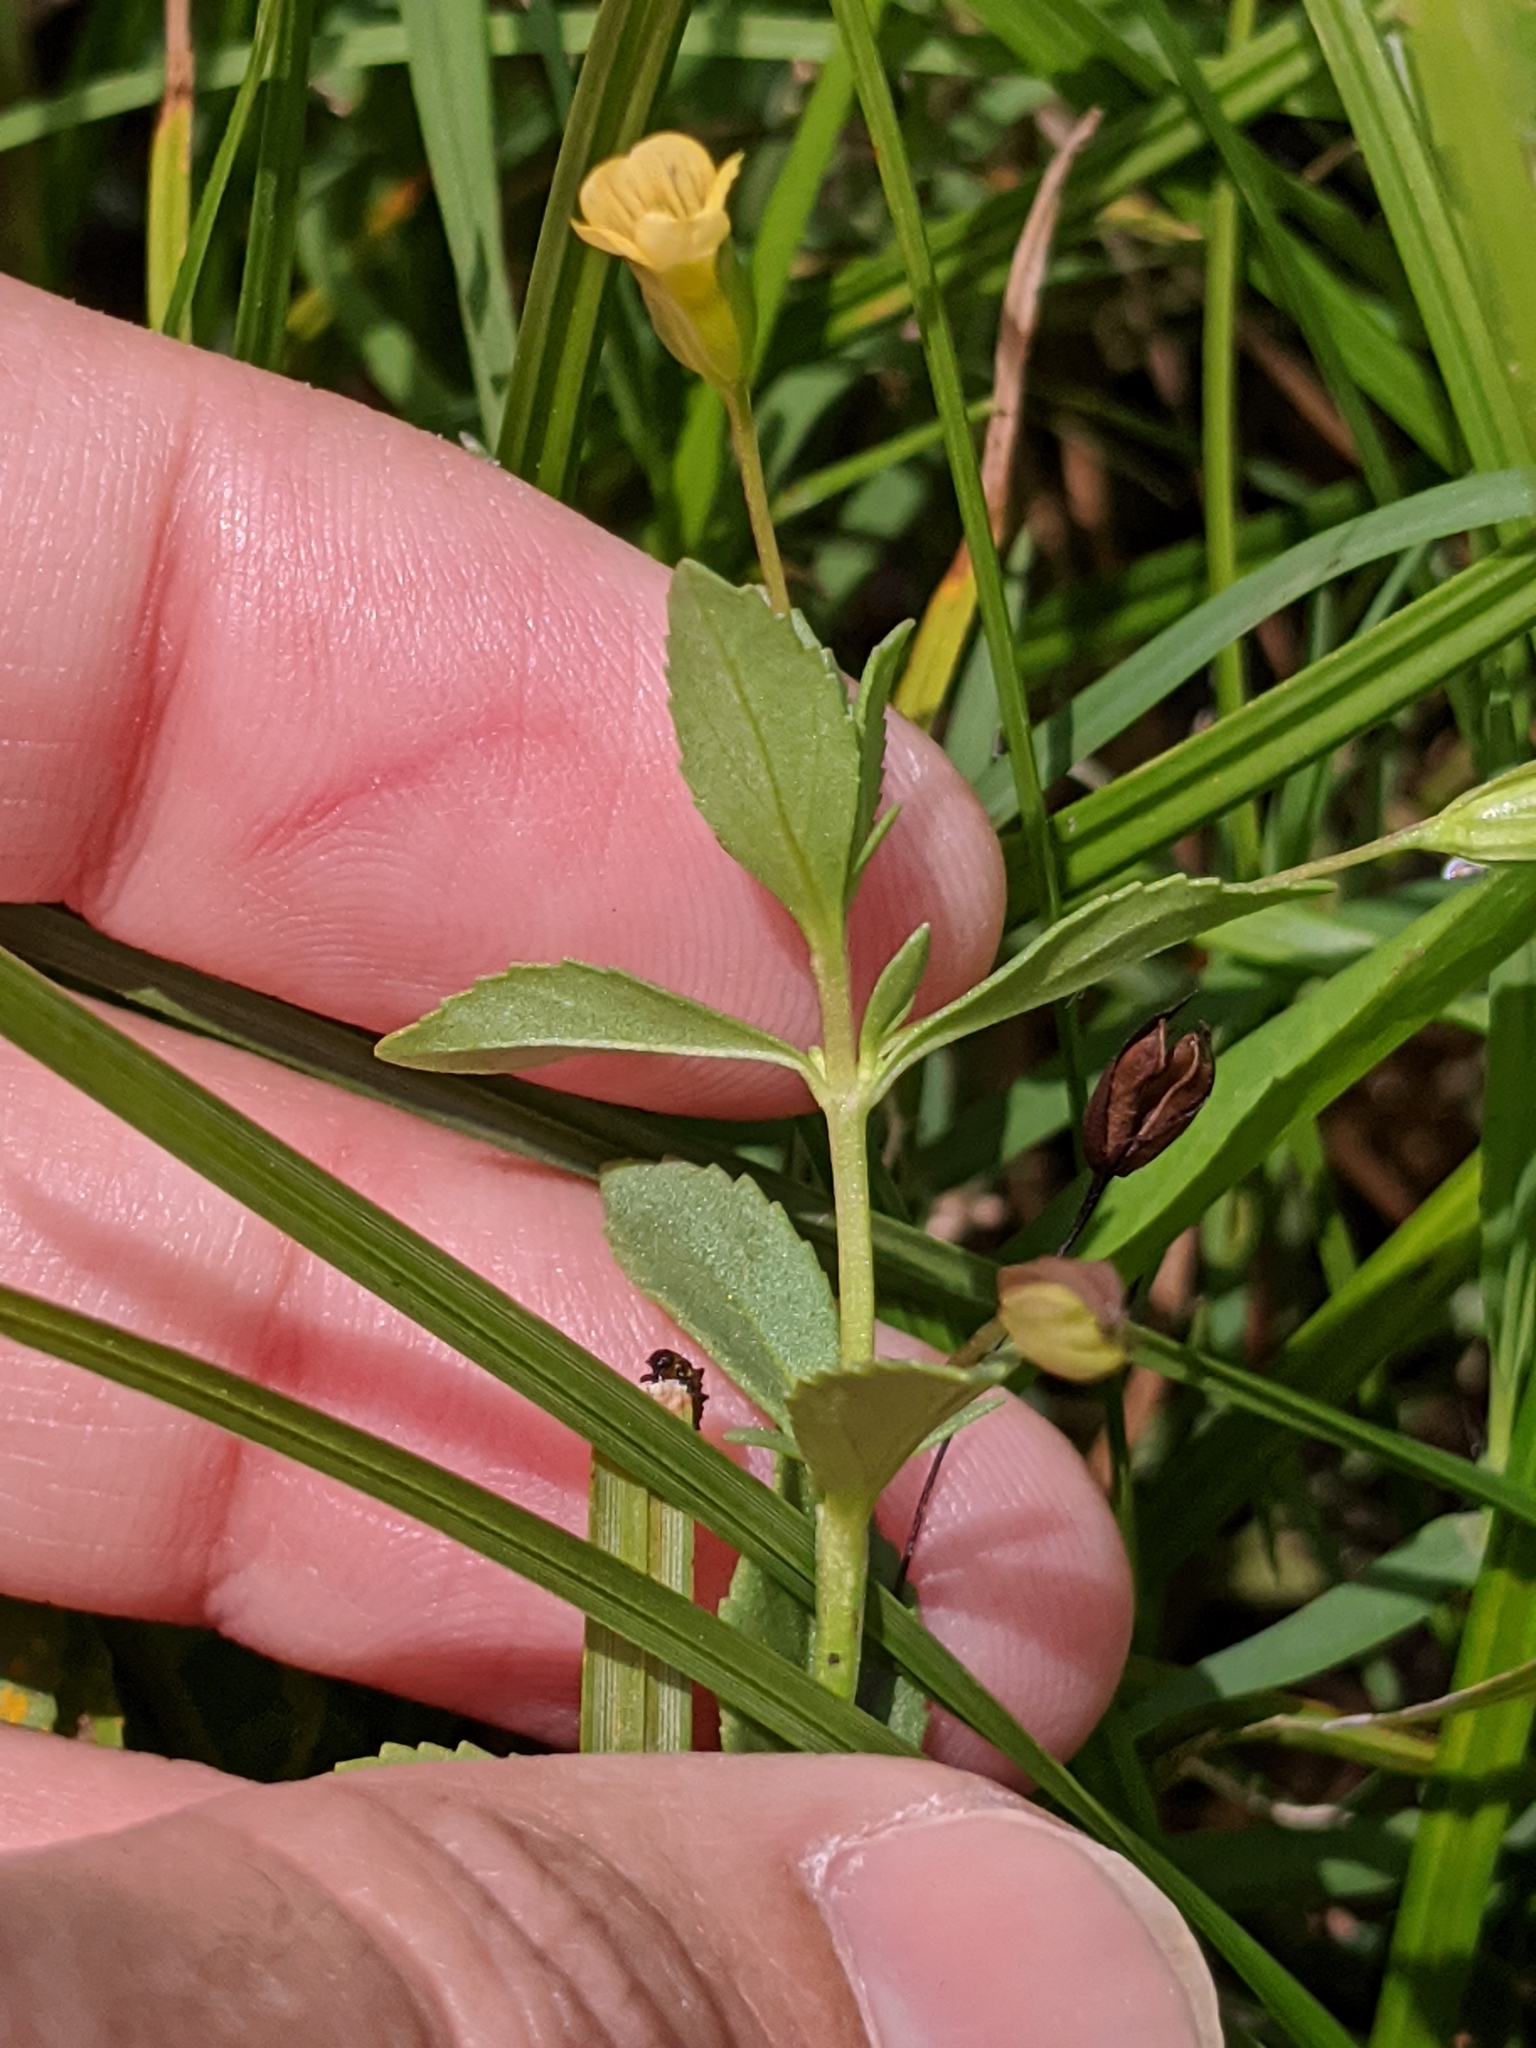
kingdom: Plantae
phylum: Tracheophyta
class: Magnoliopsida
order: Lamiales
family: Plantaginaceae
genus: Mecardonia
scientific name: Mecardonia procumbens
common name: Baby jump-up
